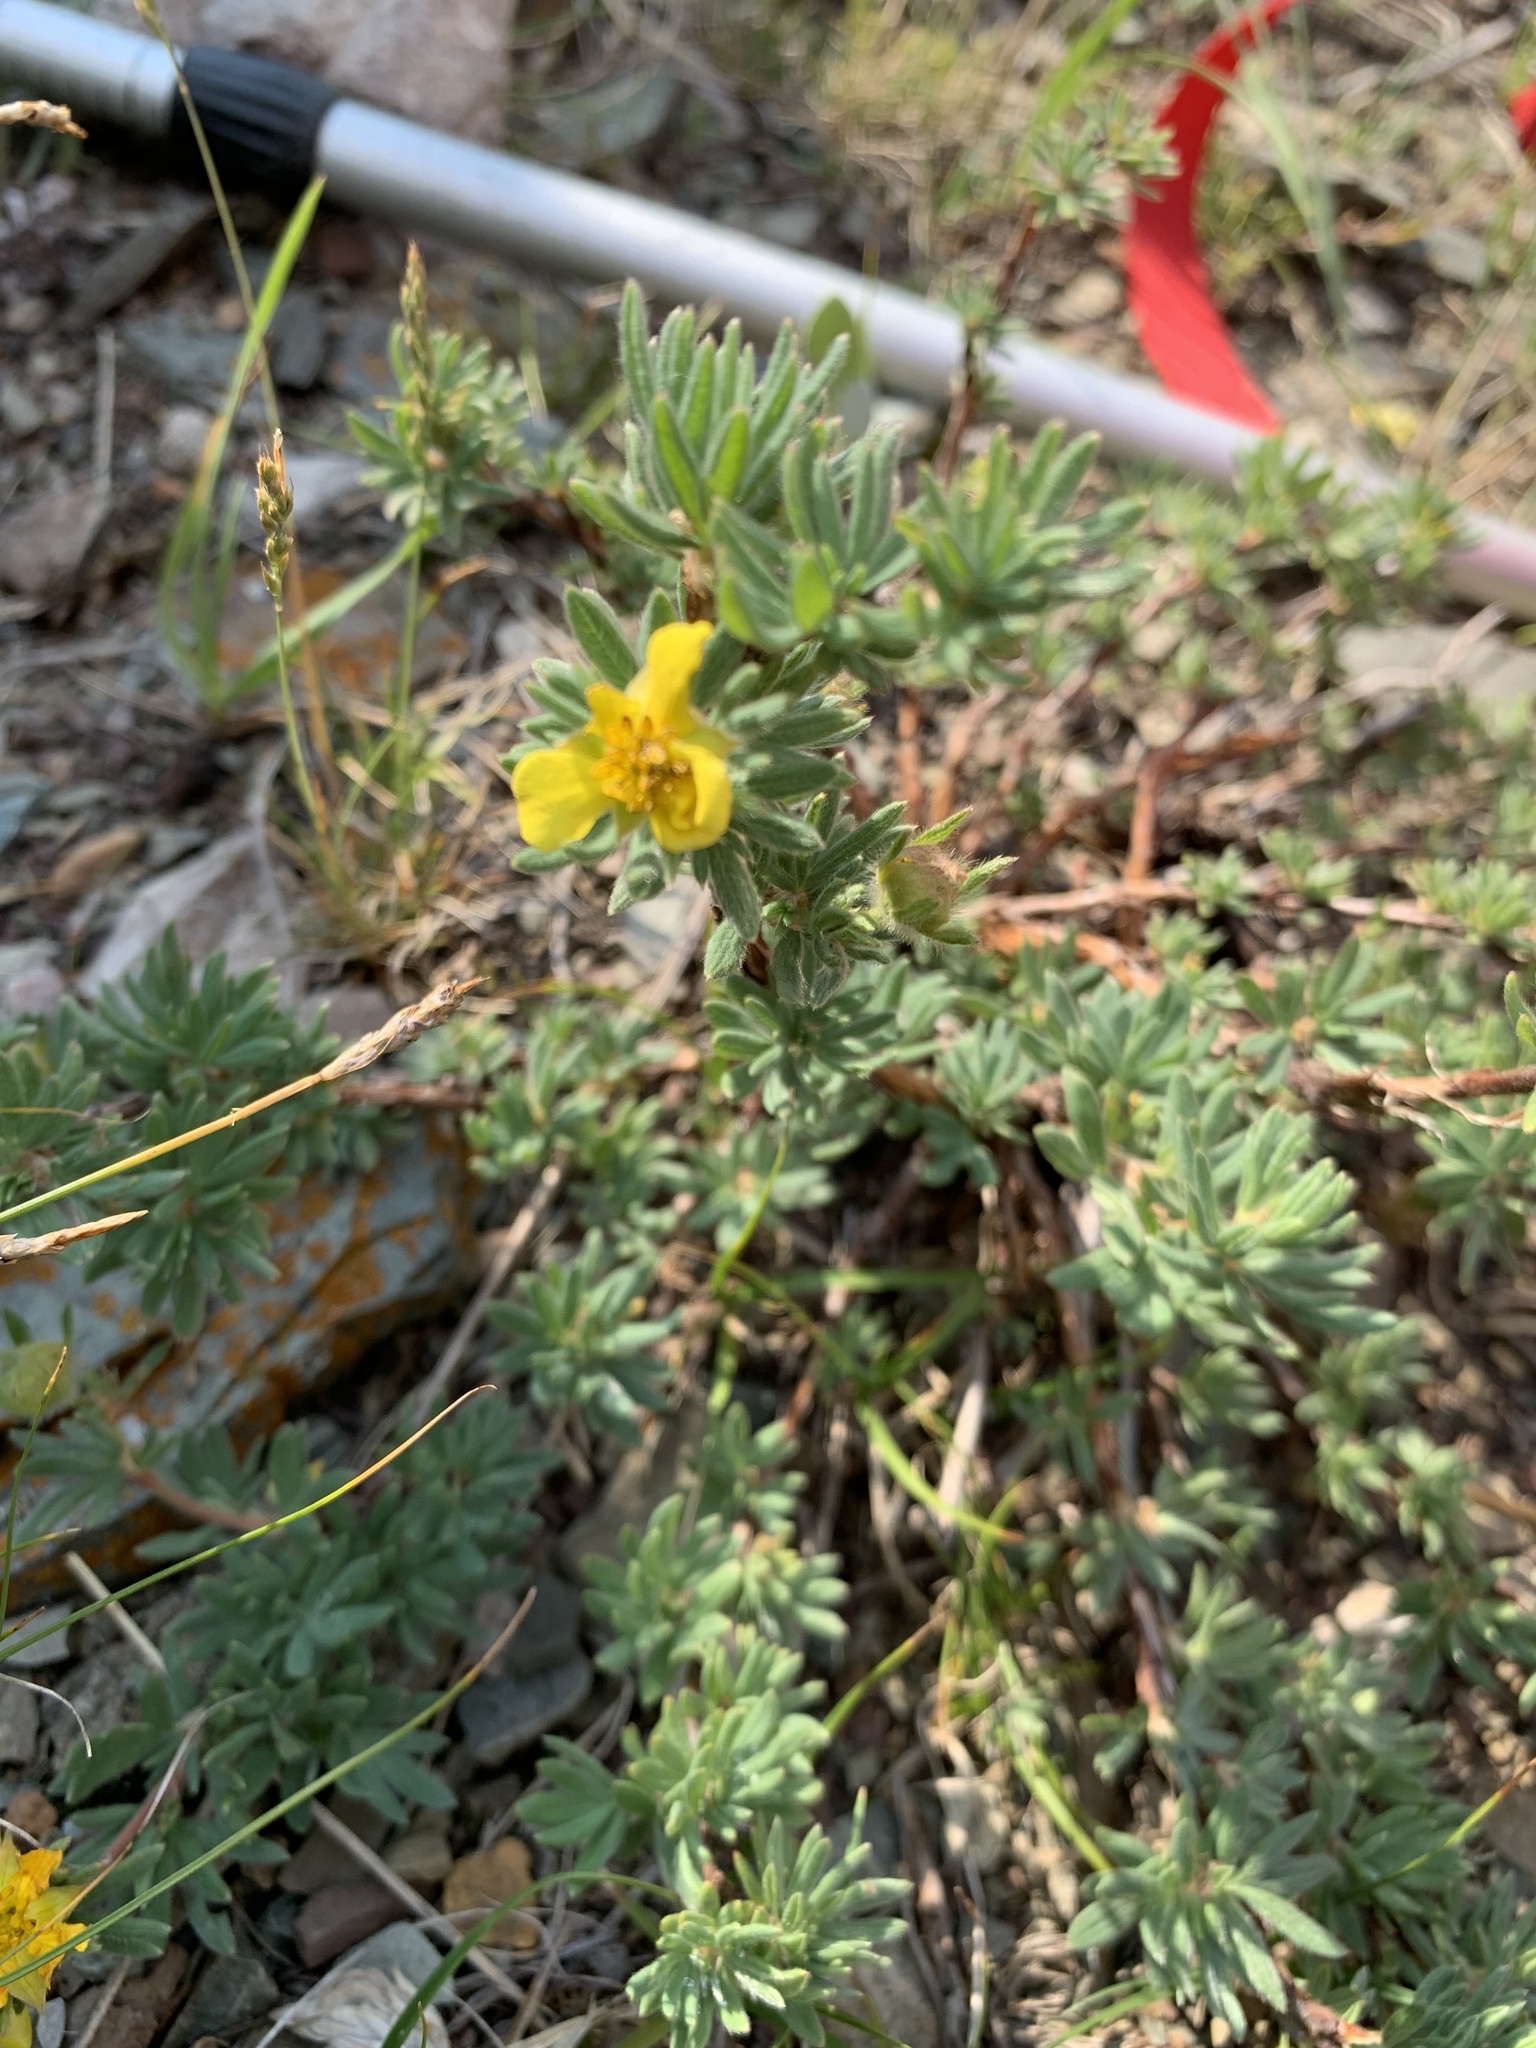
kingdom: Plantae
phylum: Tracheophyta
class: Magnoliopsida
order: Rosales
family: Rosaceae
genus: Dasiphora
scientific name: Dasiphora fruticosa
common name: Shrubby cinquefoil
